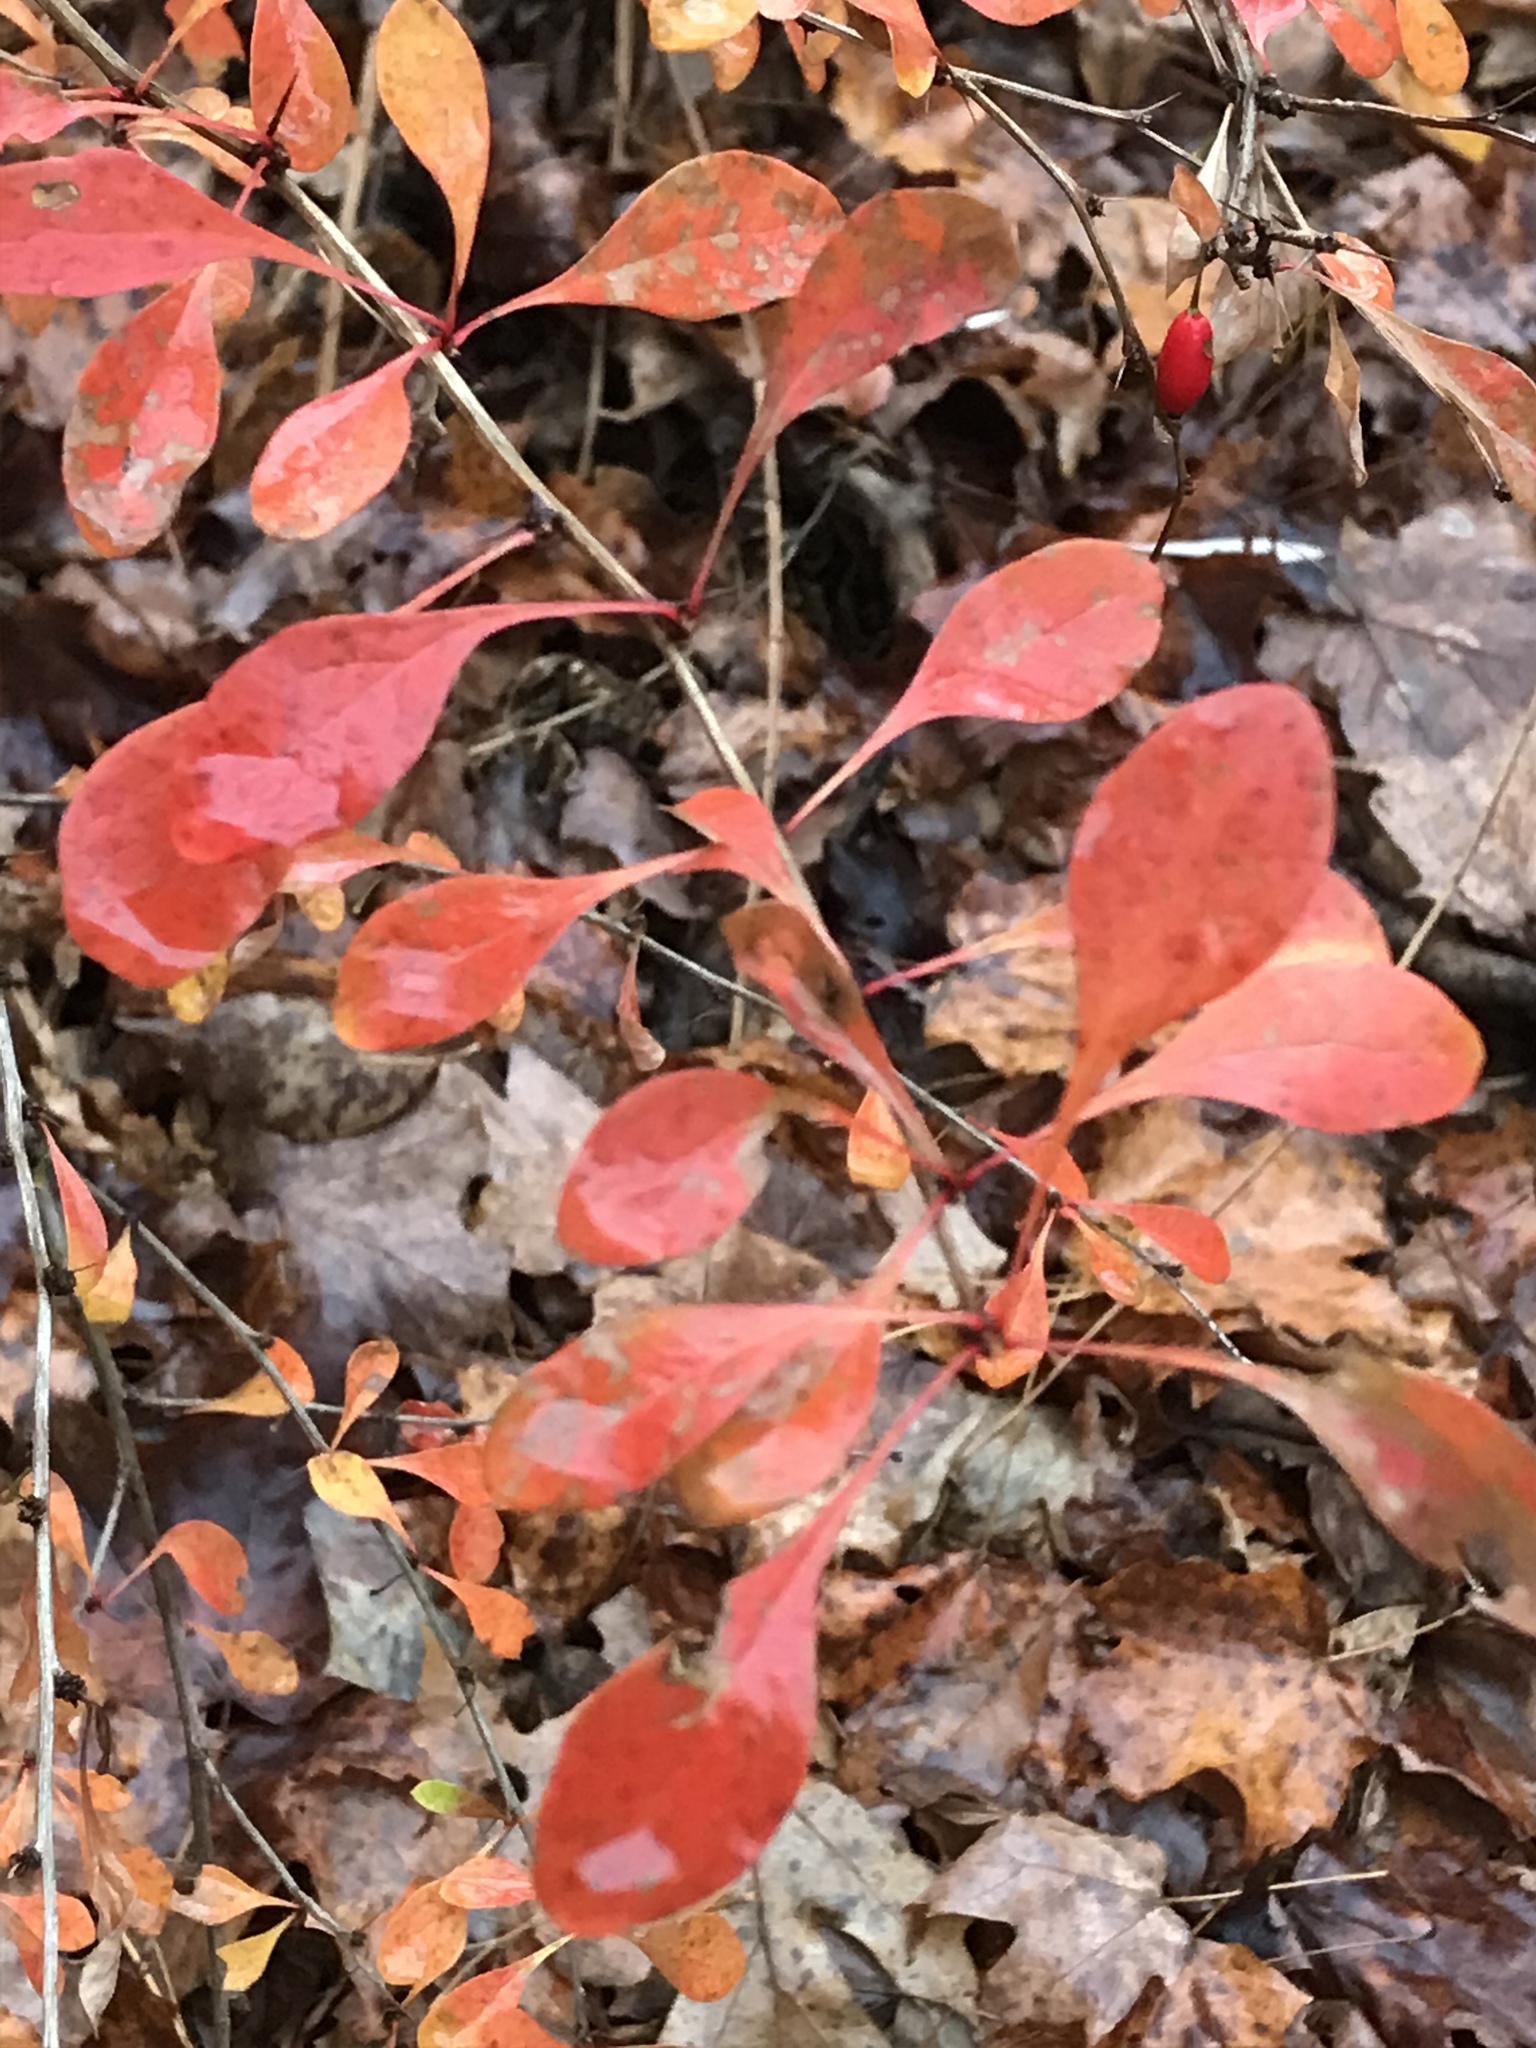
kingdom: Plantae
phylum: Tracheophyta
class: Magnoliopsida
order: Ranunculales
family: Berberidaceae
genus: Berberis
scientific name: Berberis thunbergii
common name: Japanese barberry
